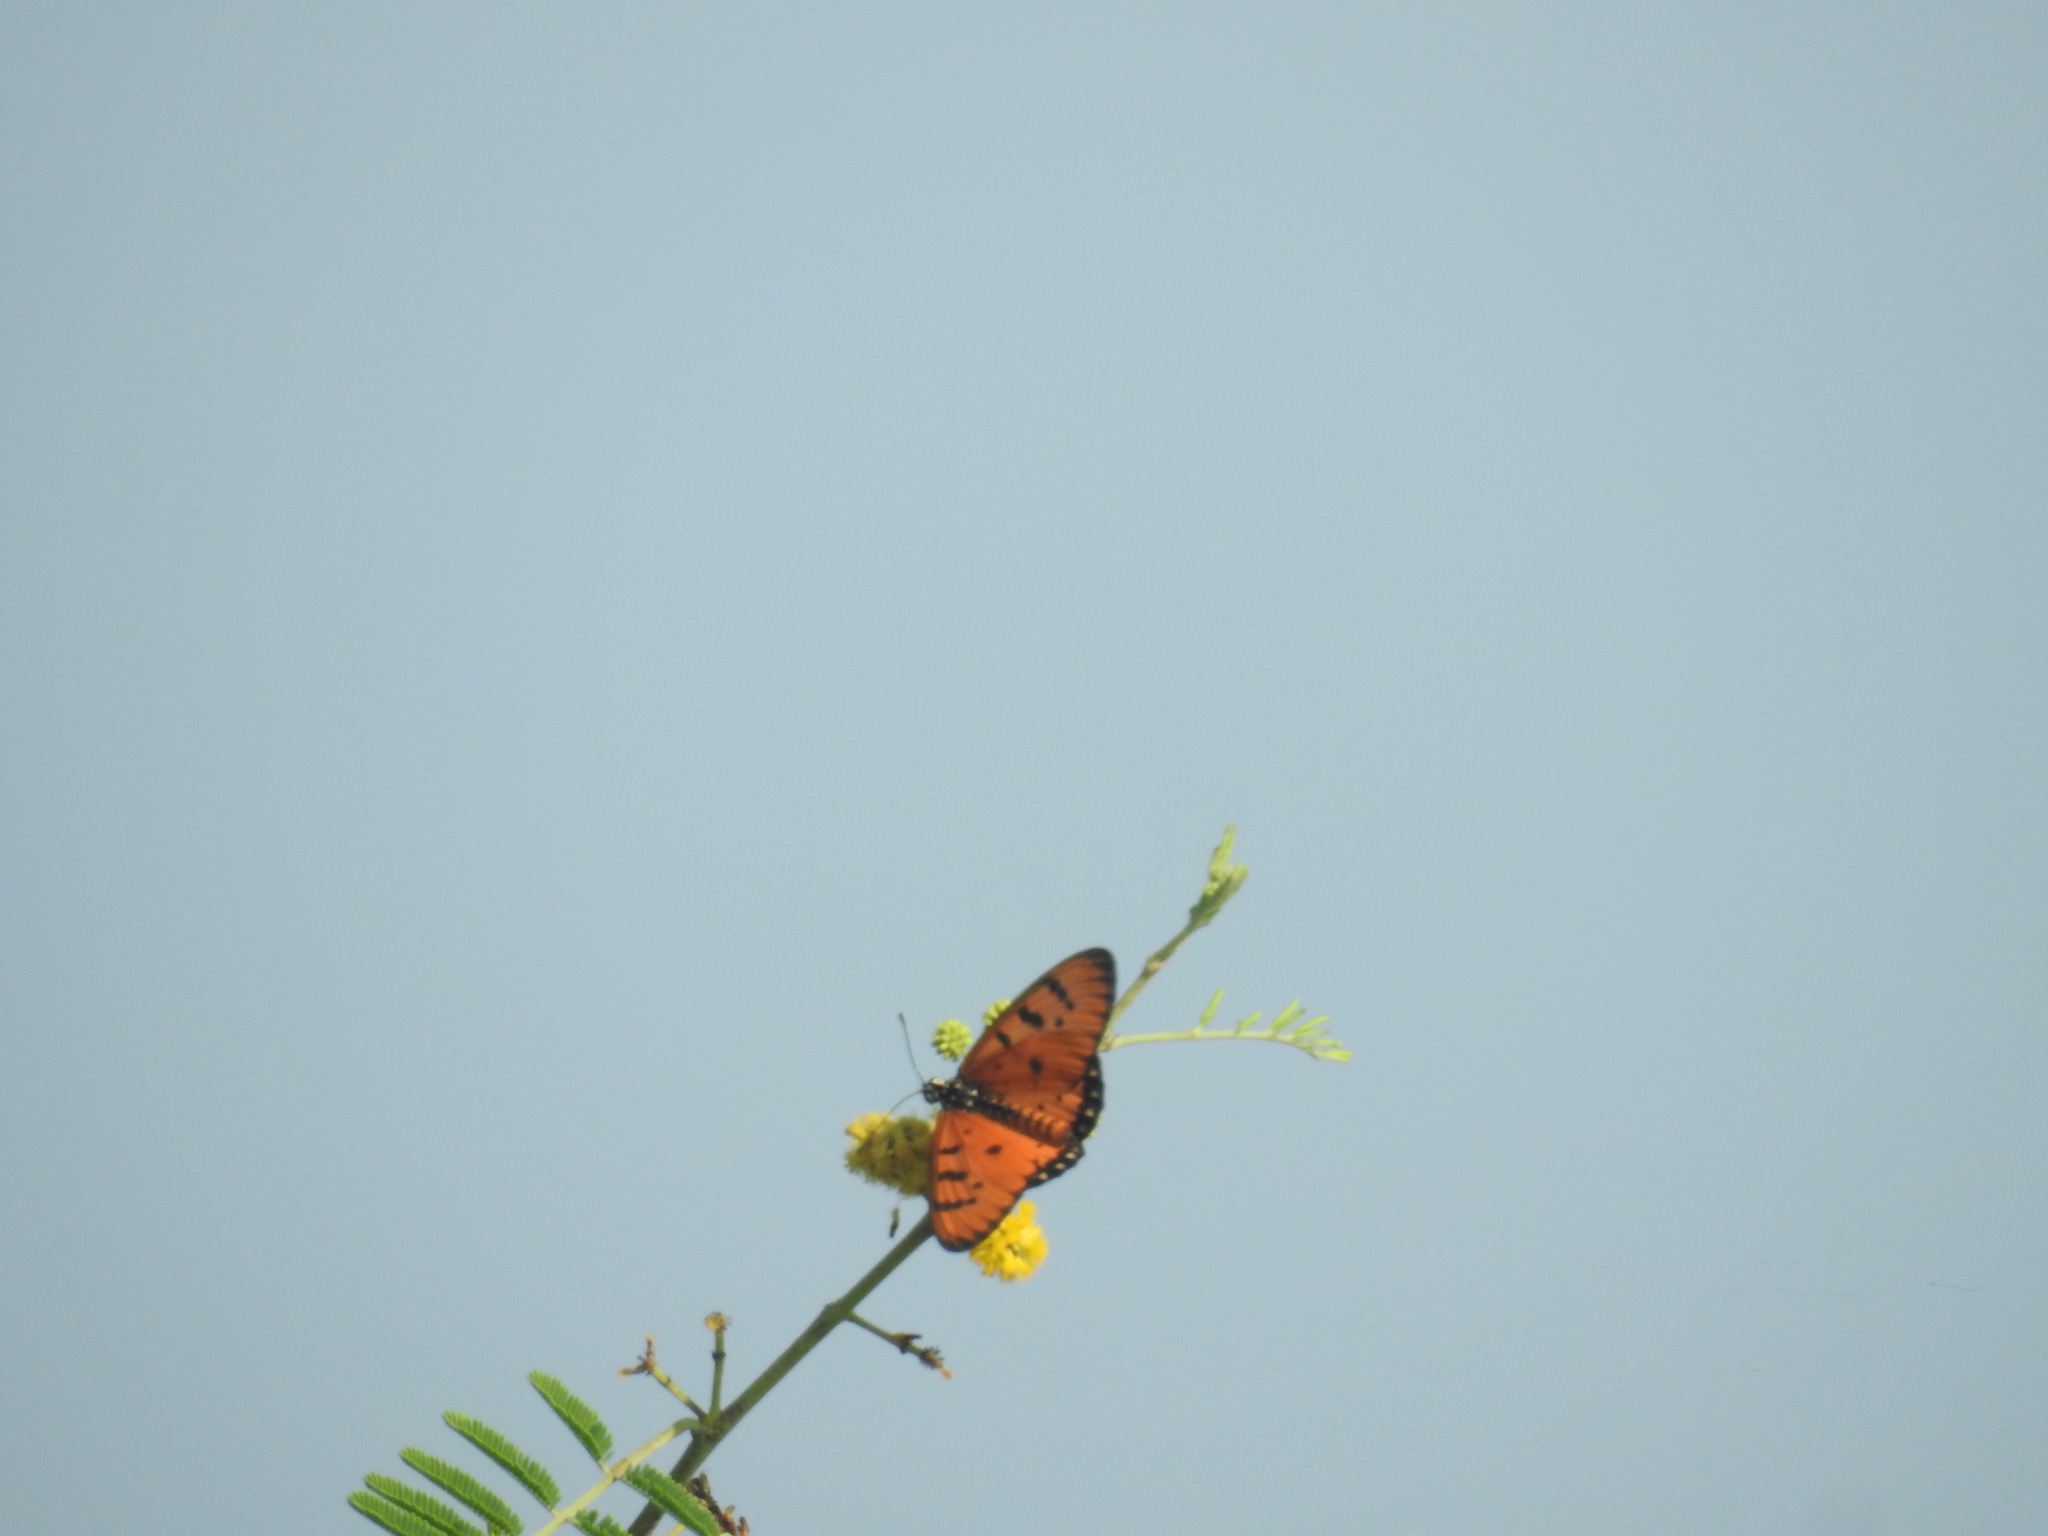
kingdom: Animalia
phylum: Arthropoda
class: Insecta
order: Lepidoptera
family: Nymphalidae
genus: Acraea
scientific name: Acraea terpsicore
